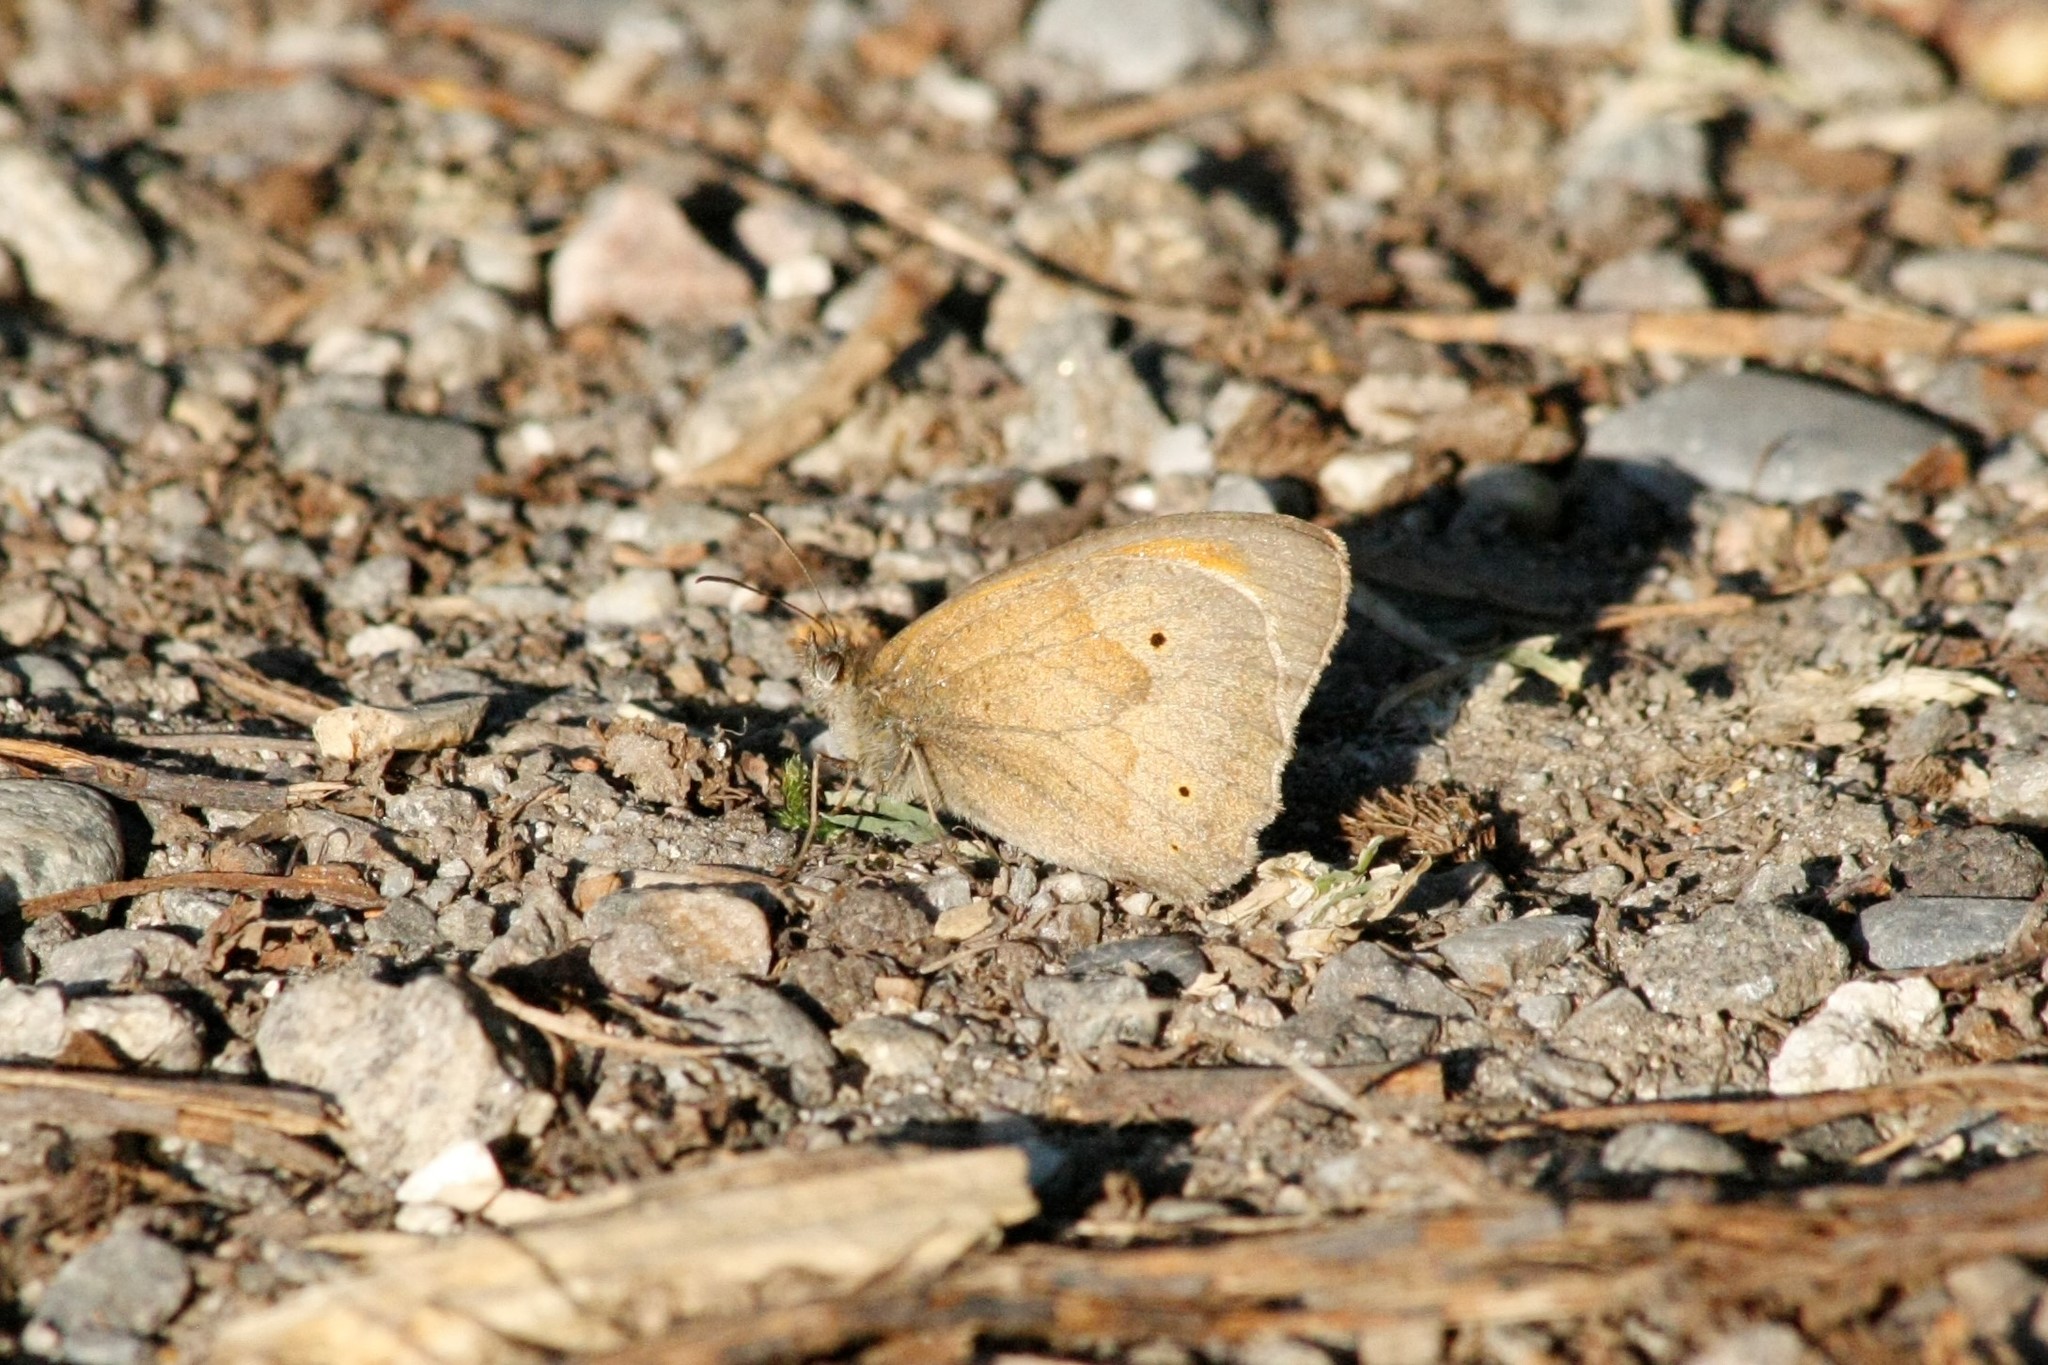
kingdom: Animalia
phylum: Arthropoda
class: Insecta
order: Lepidoptera
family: Nymphalidae
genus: Maniola
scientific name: Maniola jurtina
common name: Meadow brown
